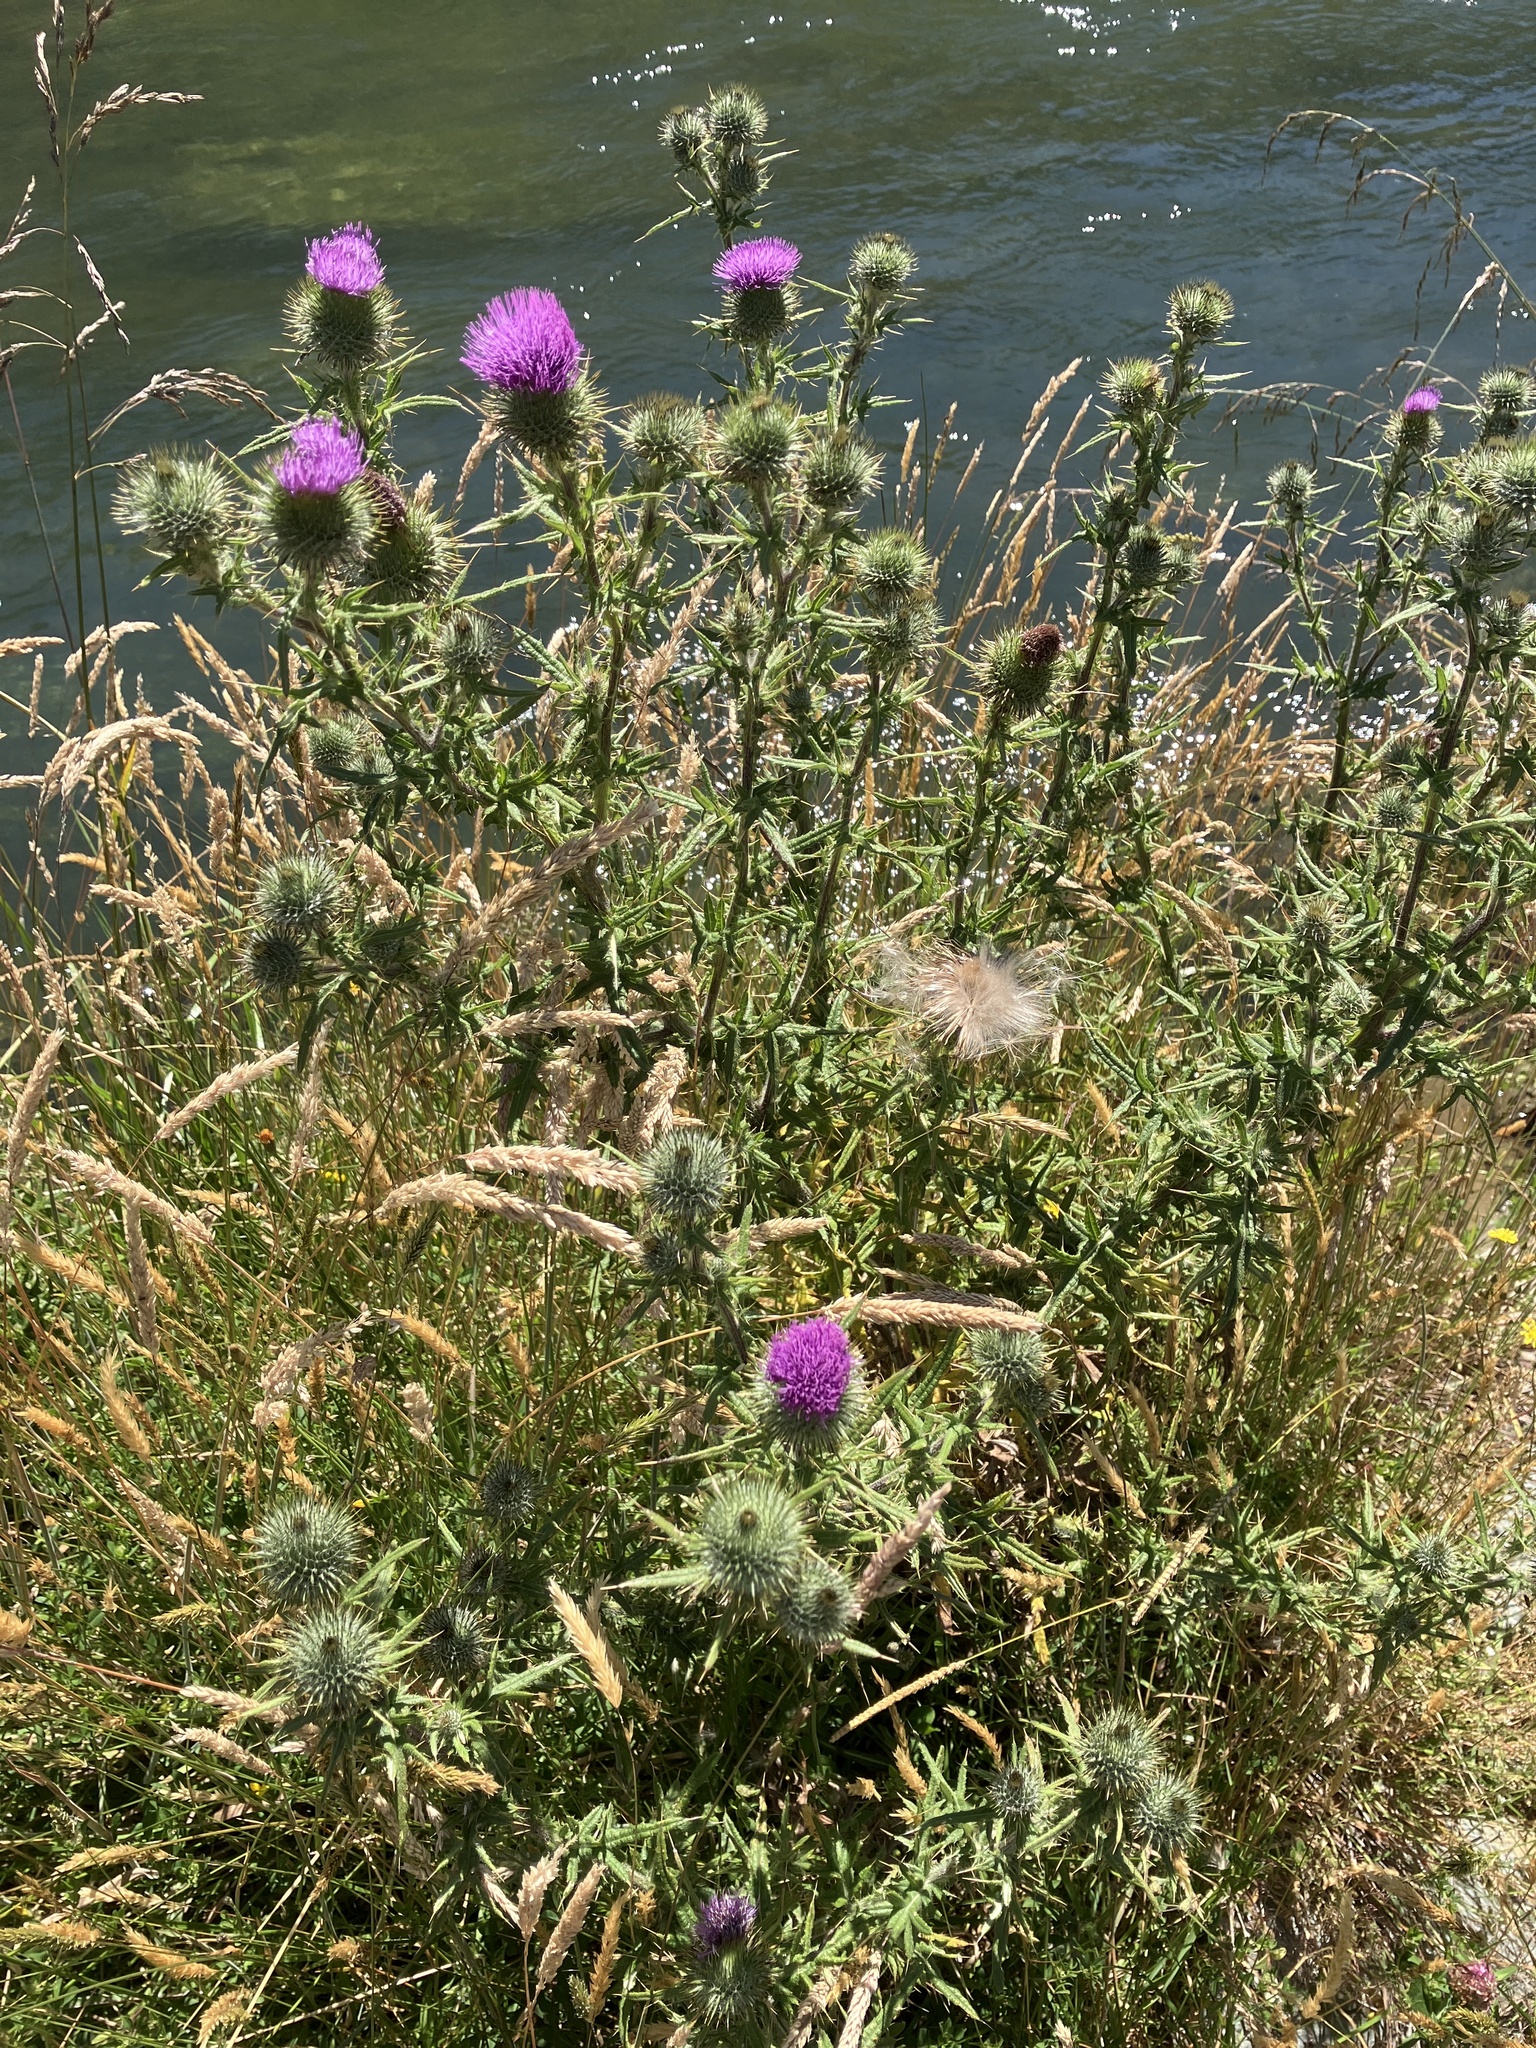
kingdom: Plantae
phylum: Tracheophyta
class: Magnoliopsida
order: Asterales
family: Asteraceae
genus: Cirsium
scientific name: Cirsium vulgare
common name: Bull thistle
